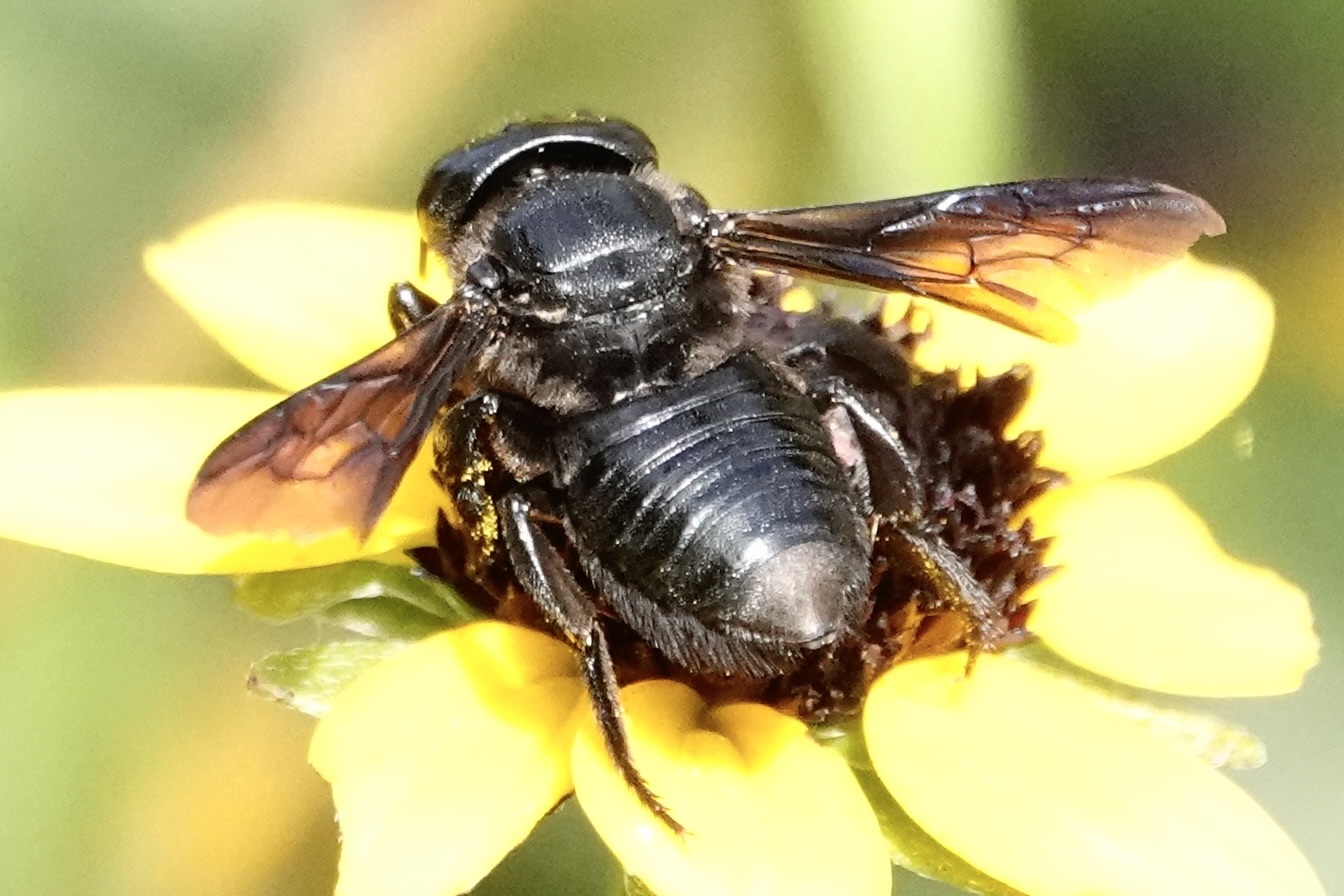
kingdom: Animalia
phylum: Arthropoda
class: Insecta
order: Hymenoptera
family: Megachilidae
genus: Megachile
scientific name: Megachile xylocopoides
